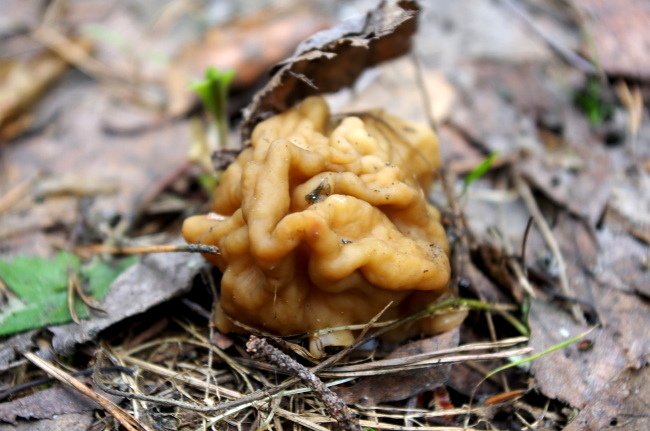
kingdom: Fungi
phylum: Ascomycota
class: Pezizomycetes
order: Pezizales
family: Discinaceae
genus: Gyromitra
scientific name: Gyromitra gigas
